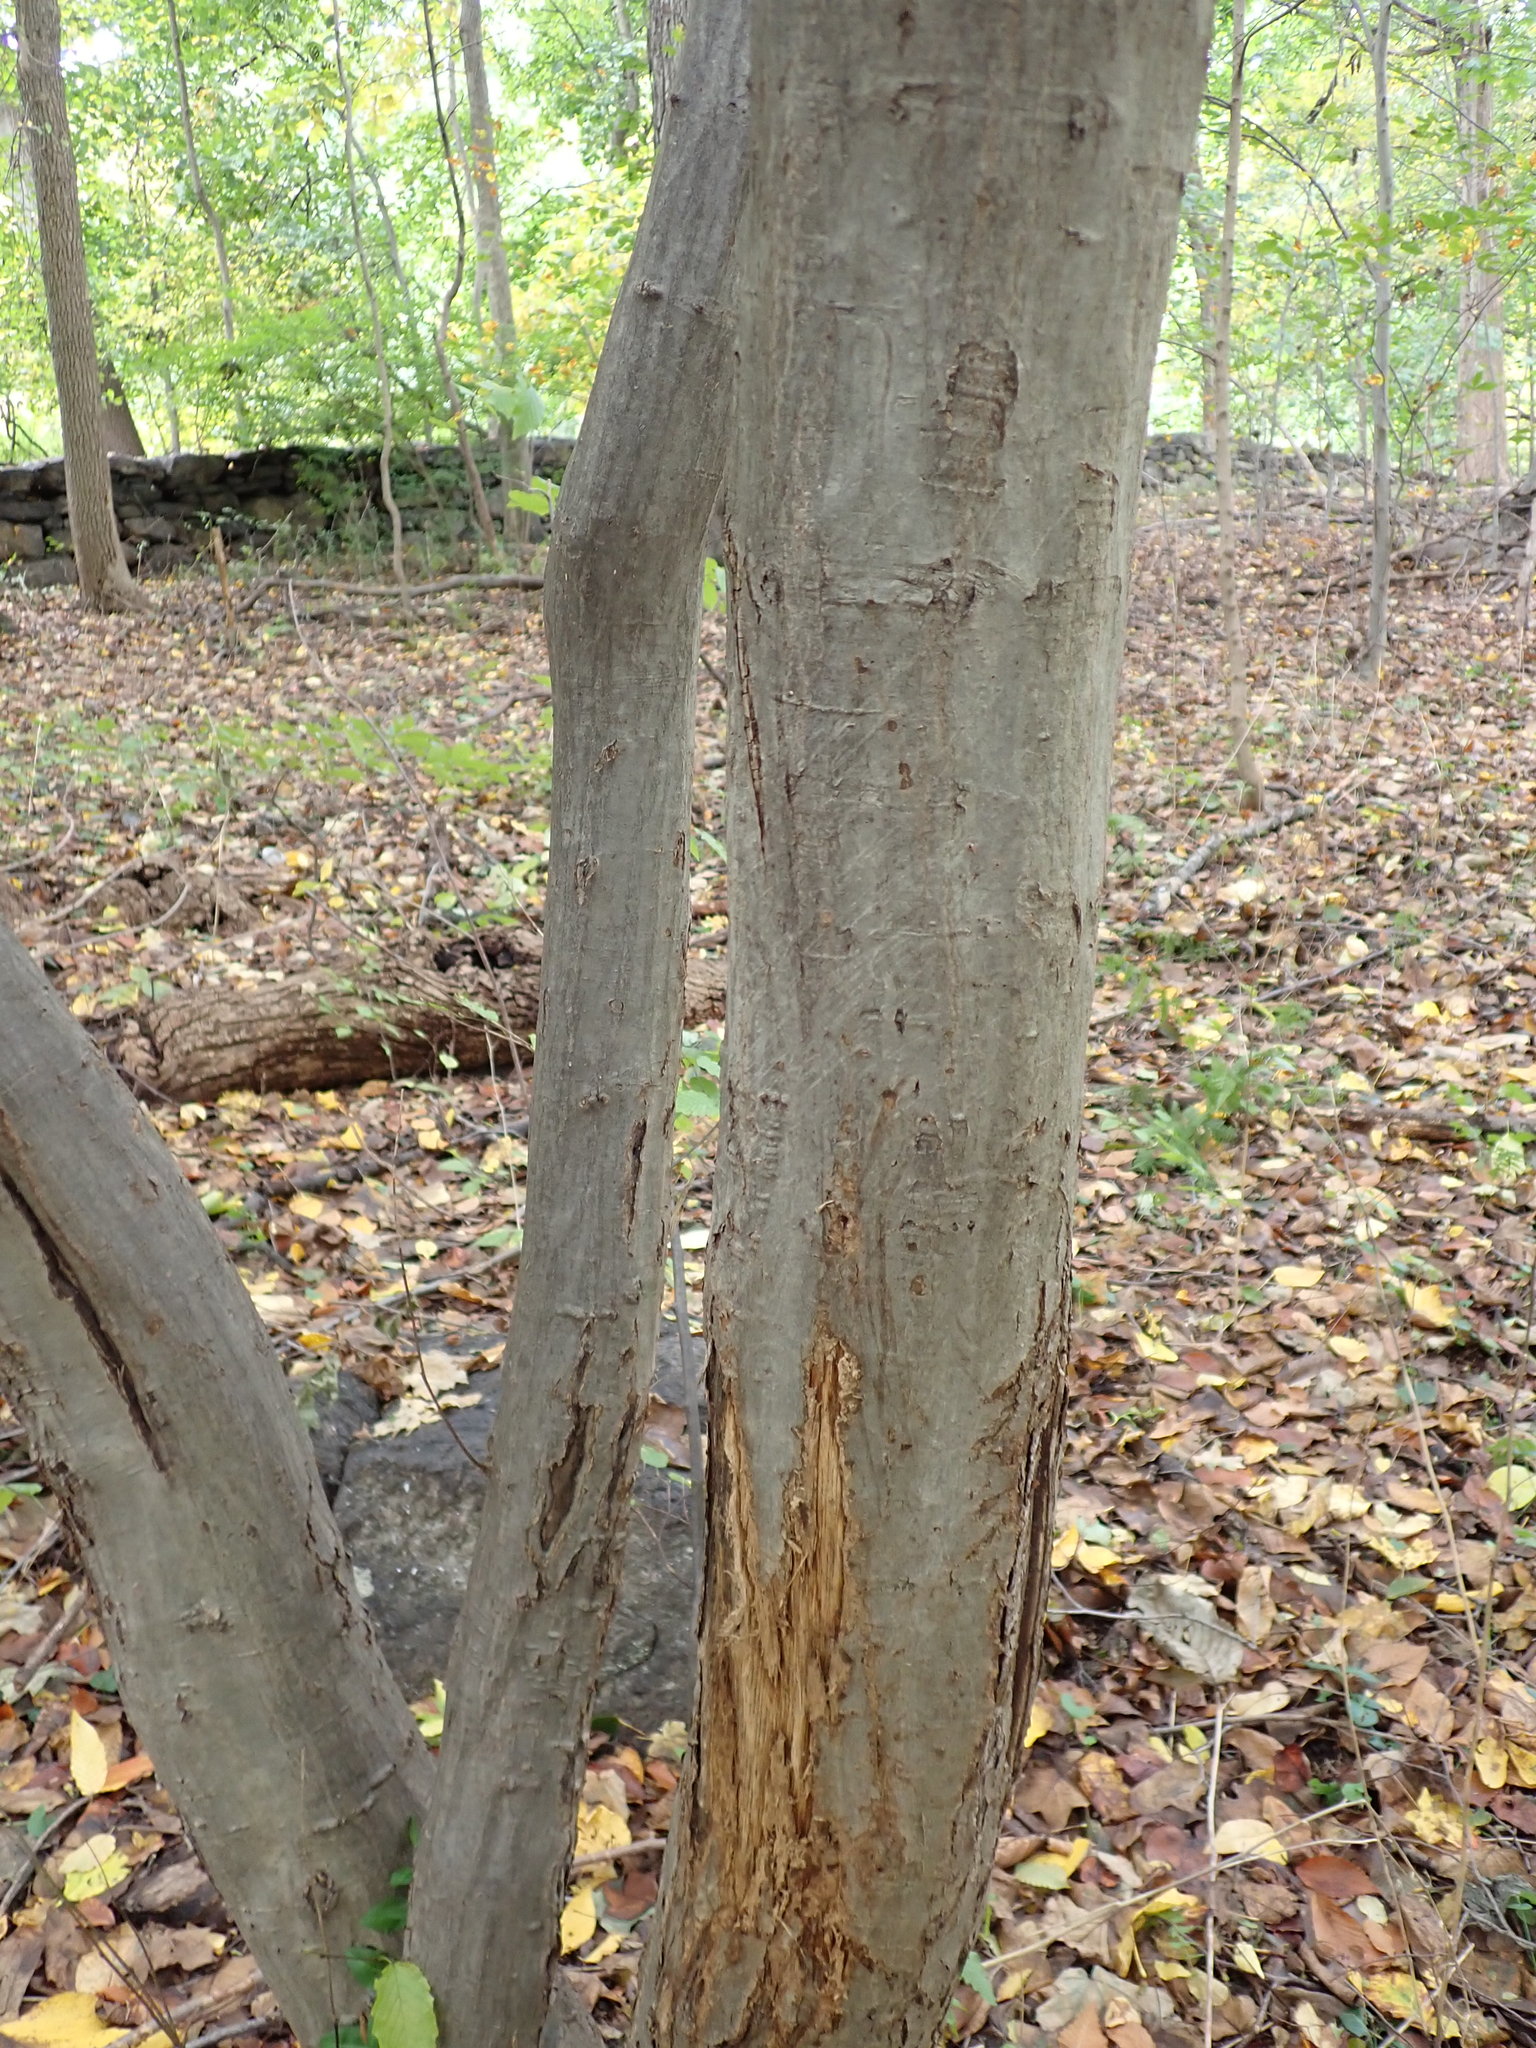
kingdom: Plantae
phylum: Tracheophyta
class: Magnoliopsida
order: Fagales
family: Betulaceae
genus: Carpinus
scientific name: Carpinus caroliniana
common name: American hornbeam
